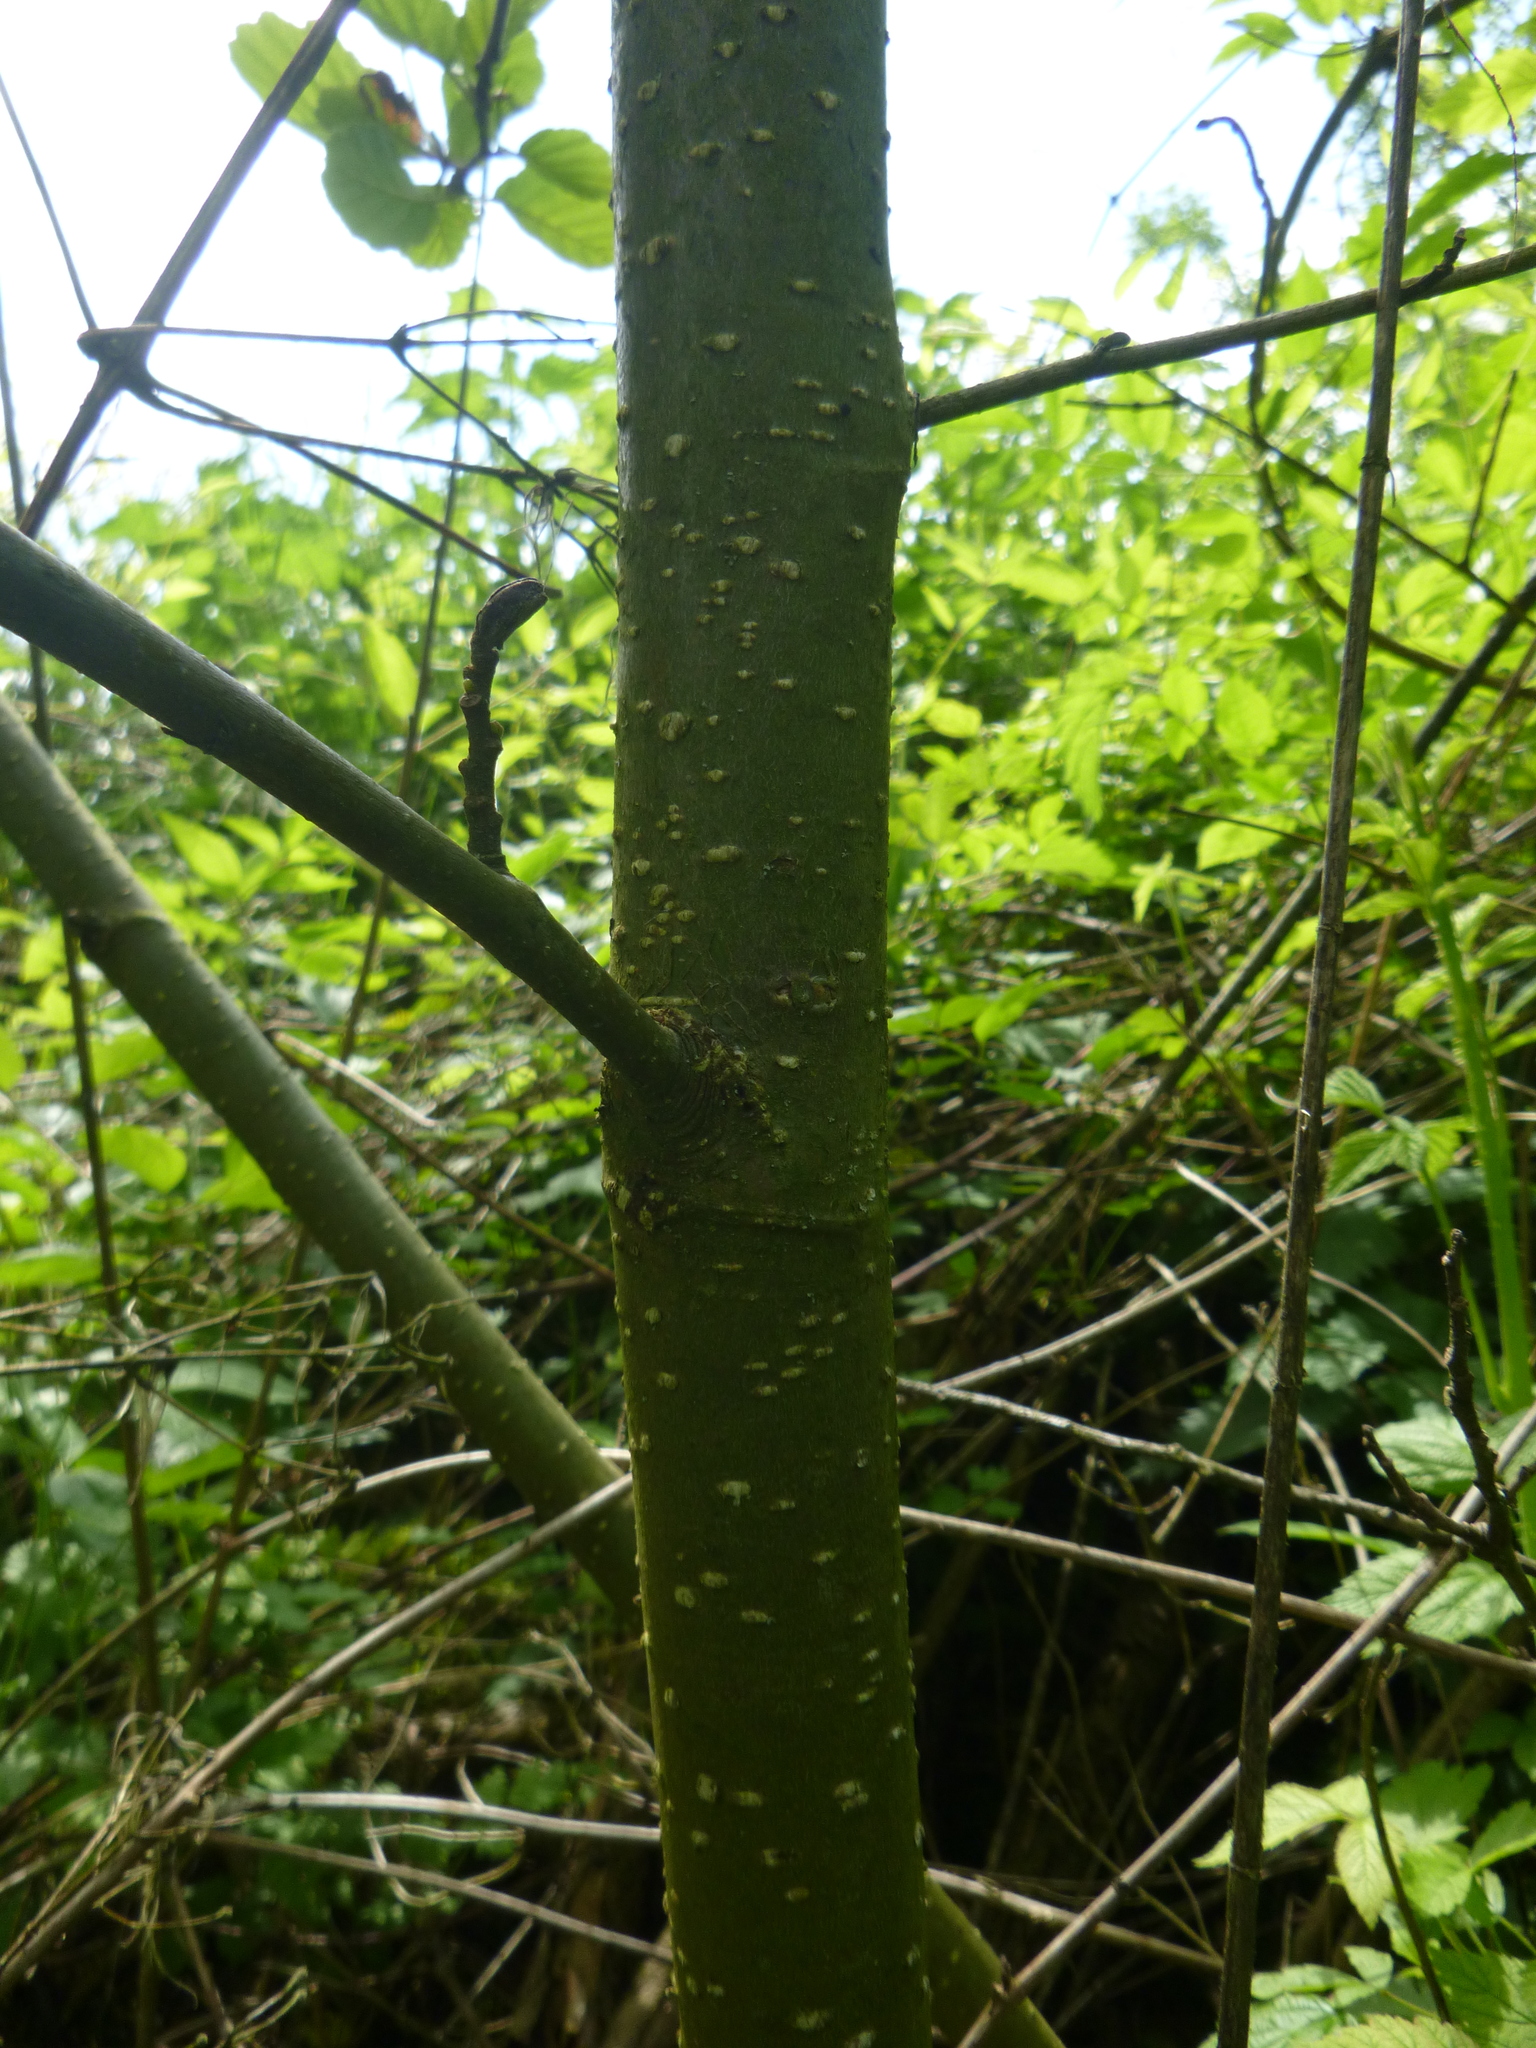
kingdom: Plantae
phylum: Tracheophyta
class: Magnoliopsida
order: Fagales
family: Betulaceae
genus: Alnus
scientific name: Alnus glutinosa
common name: Black alder
